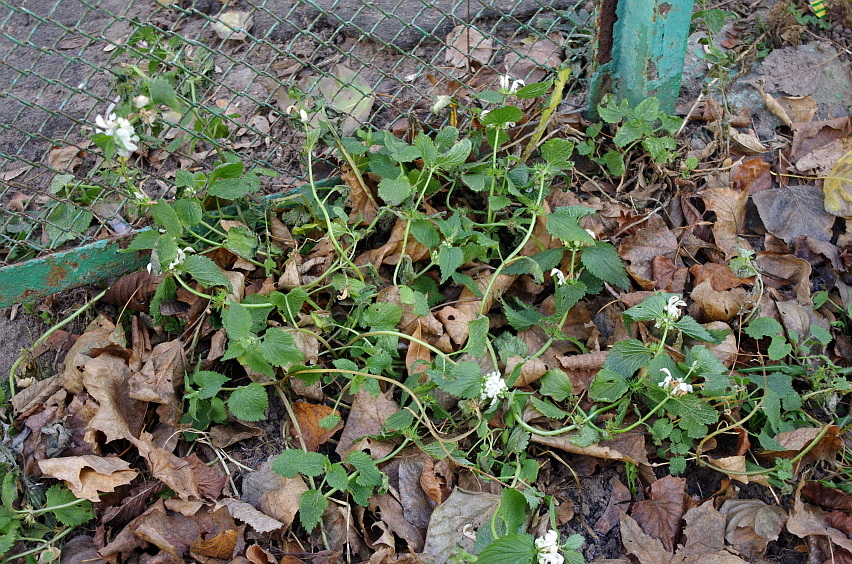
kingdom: Plantae
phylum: Tracheophyta
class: Magnoliopsida
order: Lamiales
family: Lamiaceae
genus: Lamium
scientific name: Lamium album
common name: White dead-nettle
